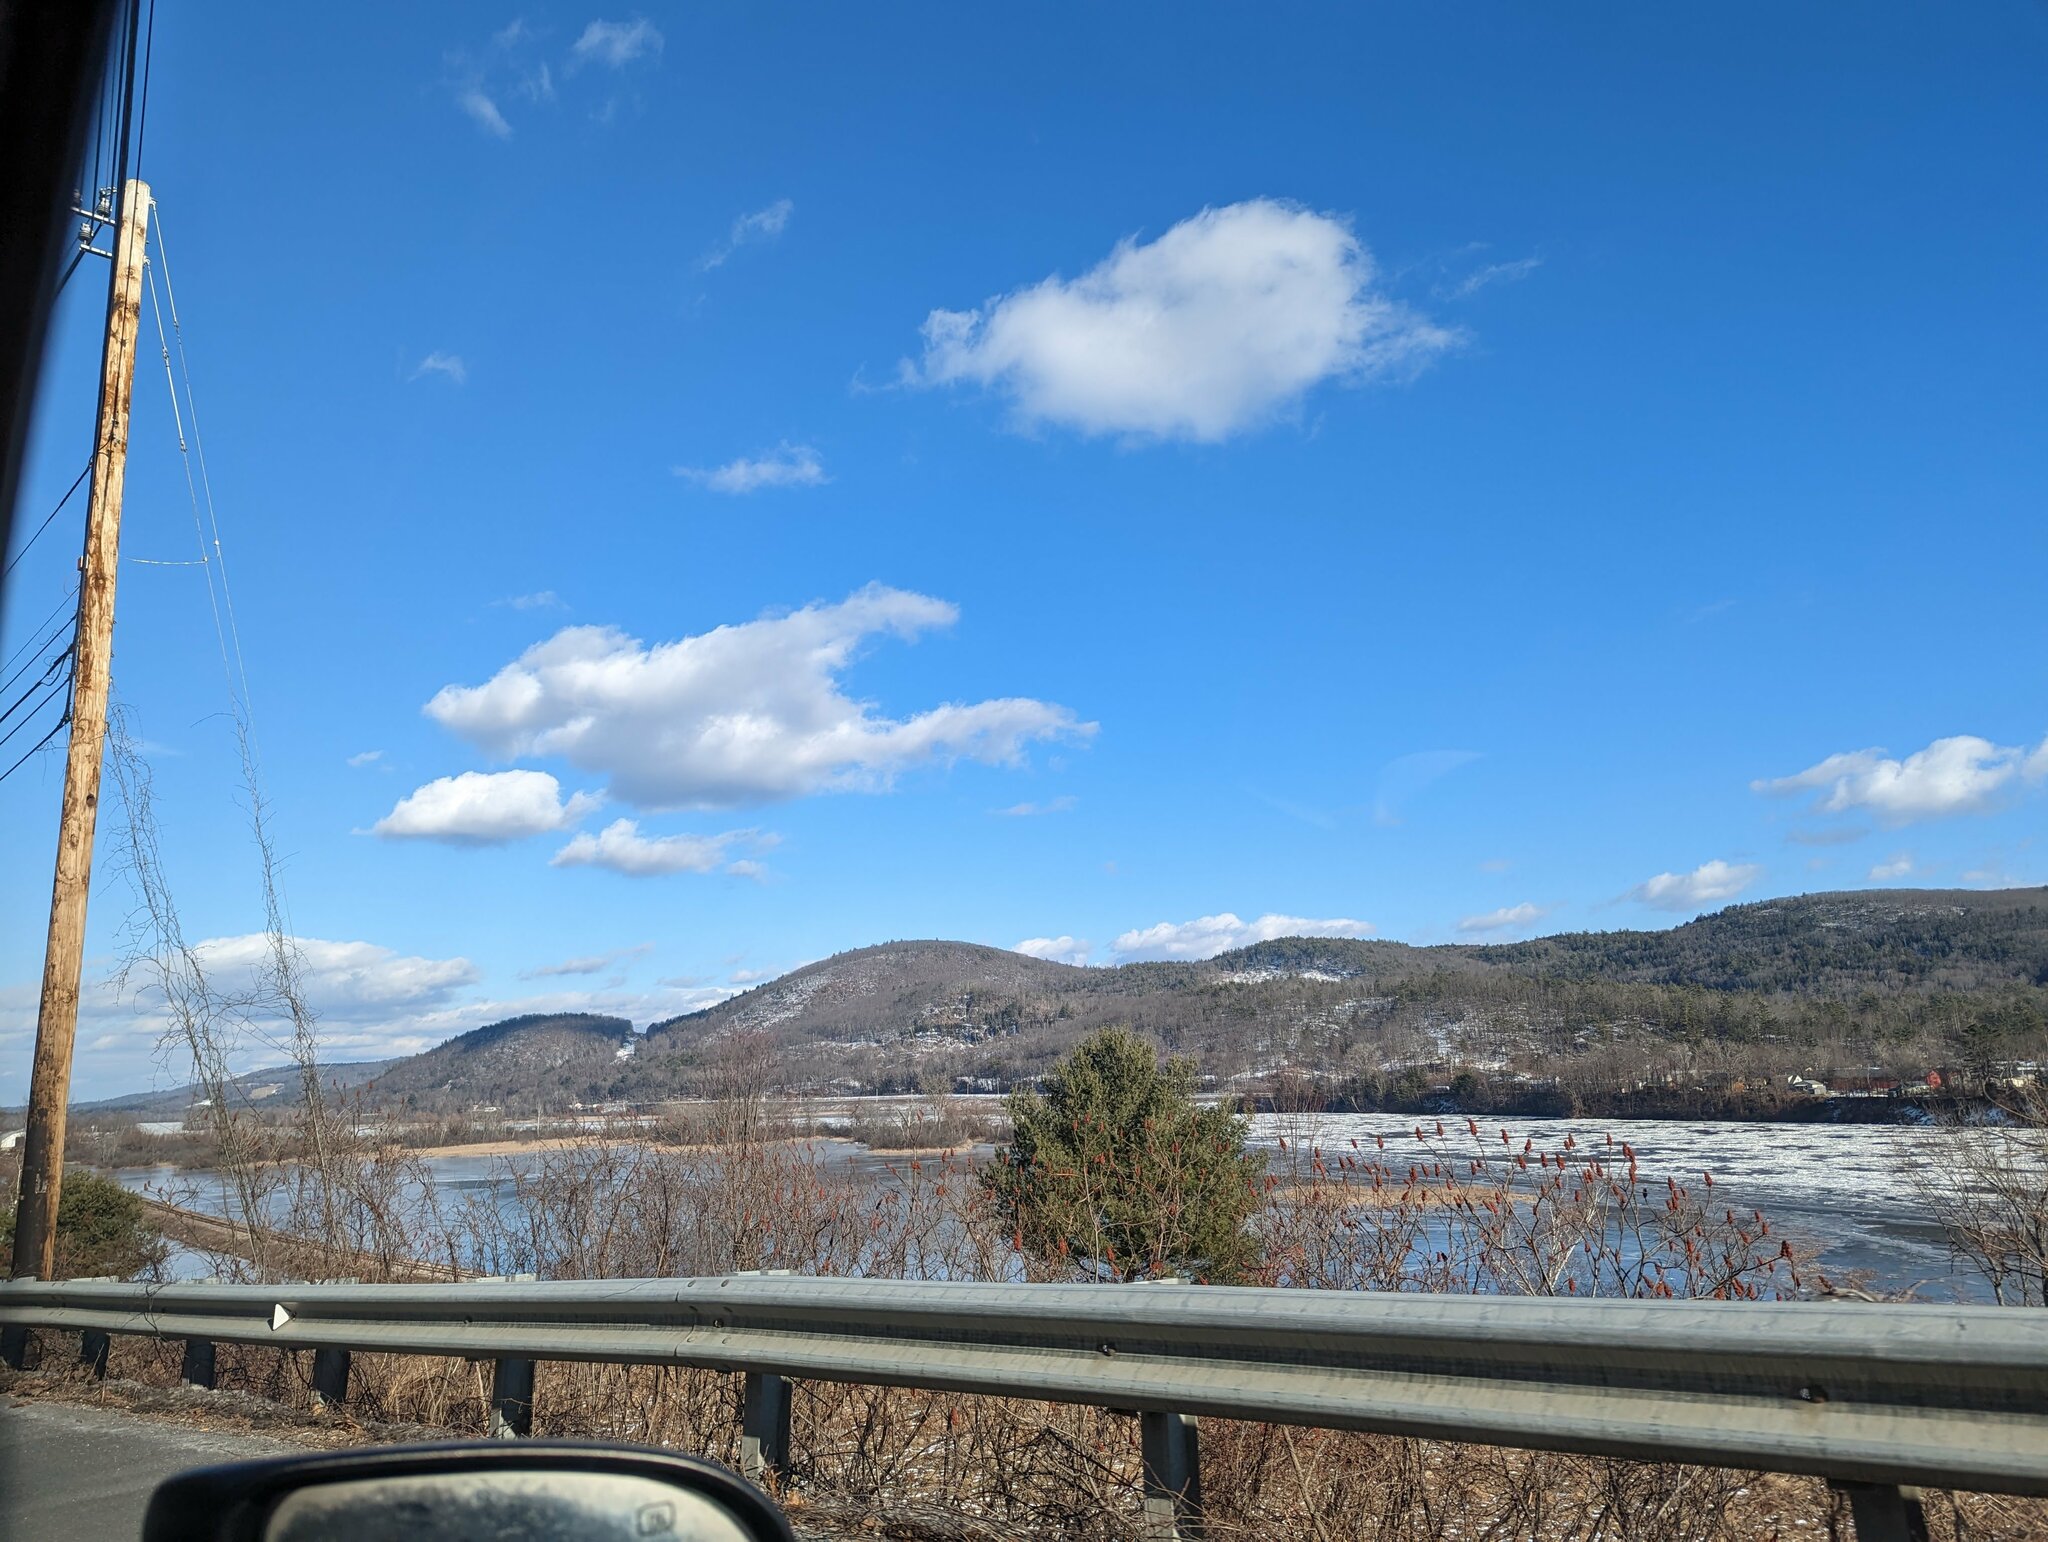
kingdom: Plantae
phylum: Tracheophyta
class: Pinopsida
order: Pinales
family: Pinaceae
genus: Pinus
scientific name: Pinus strobus
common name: Weymouth pine
